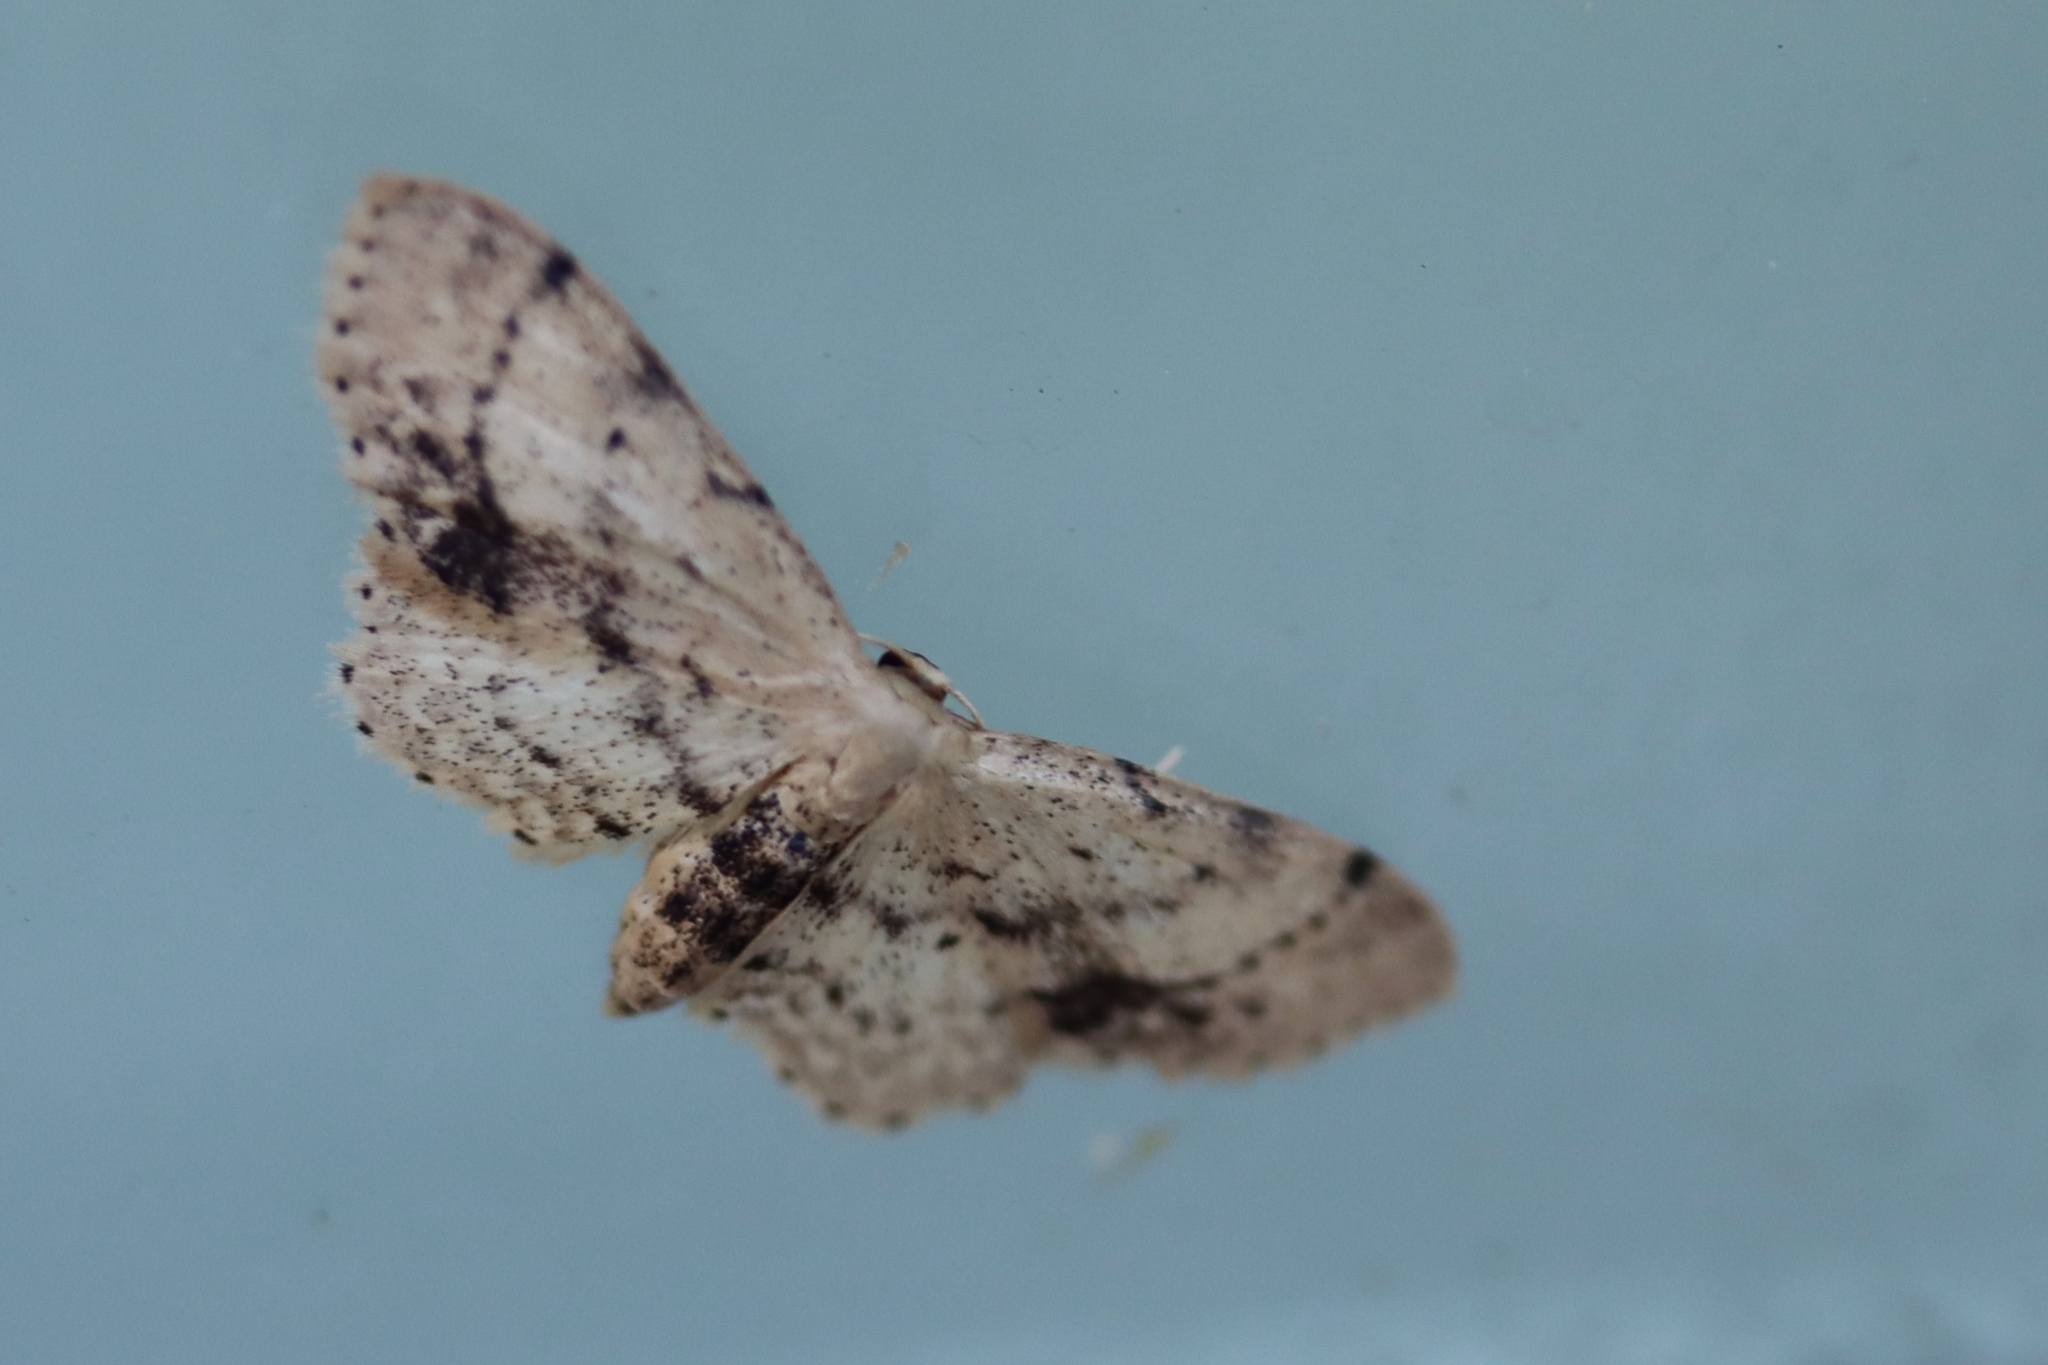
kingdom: Animalia
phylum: Arthropoda
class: Insecta
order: Lepidoptera
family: Geometridae
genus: Idaea
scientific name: Idaea dimidiata
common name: Single-dotted wave
